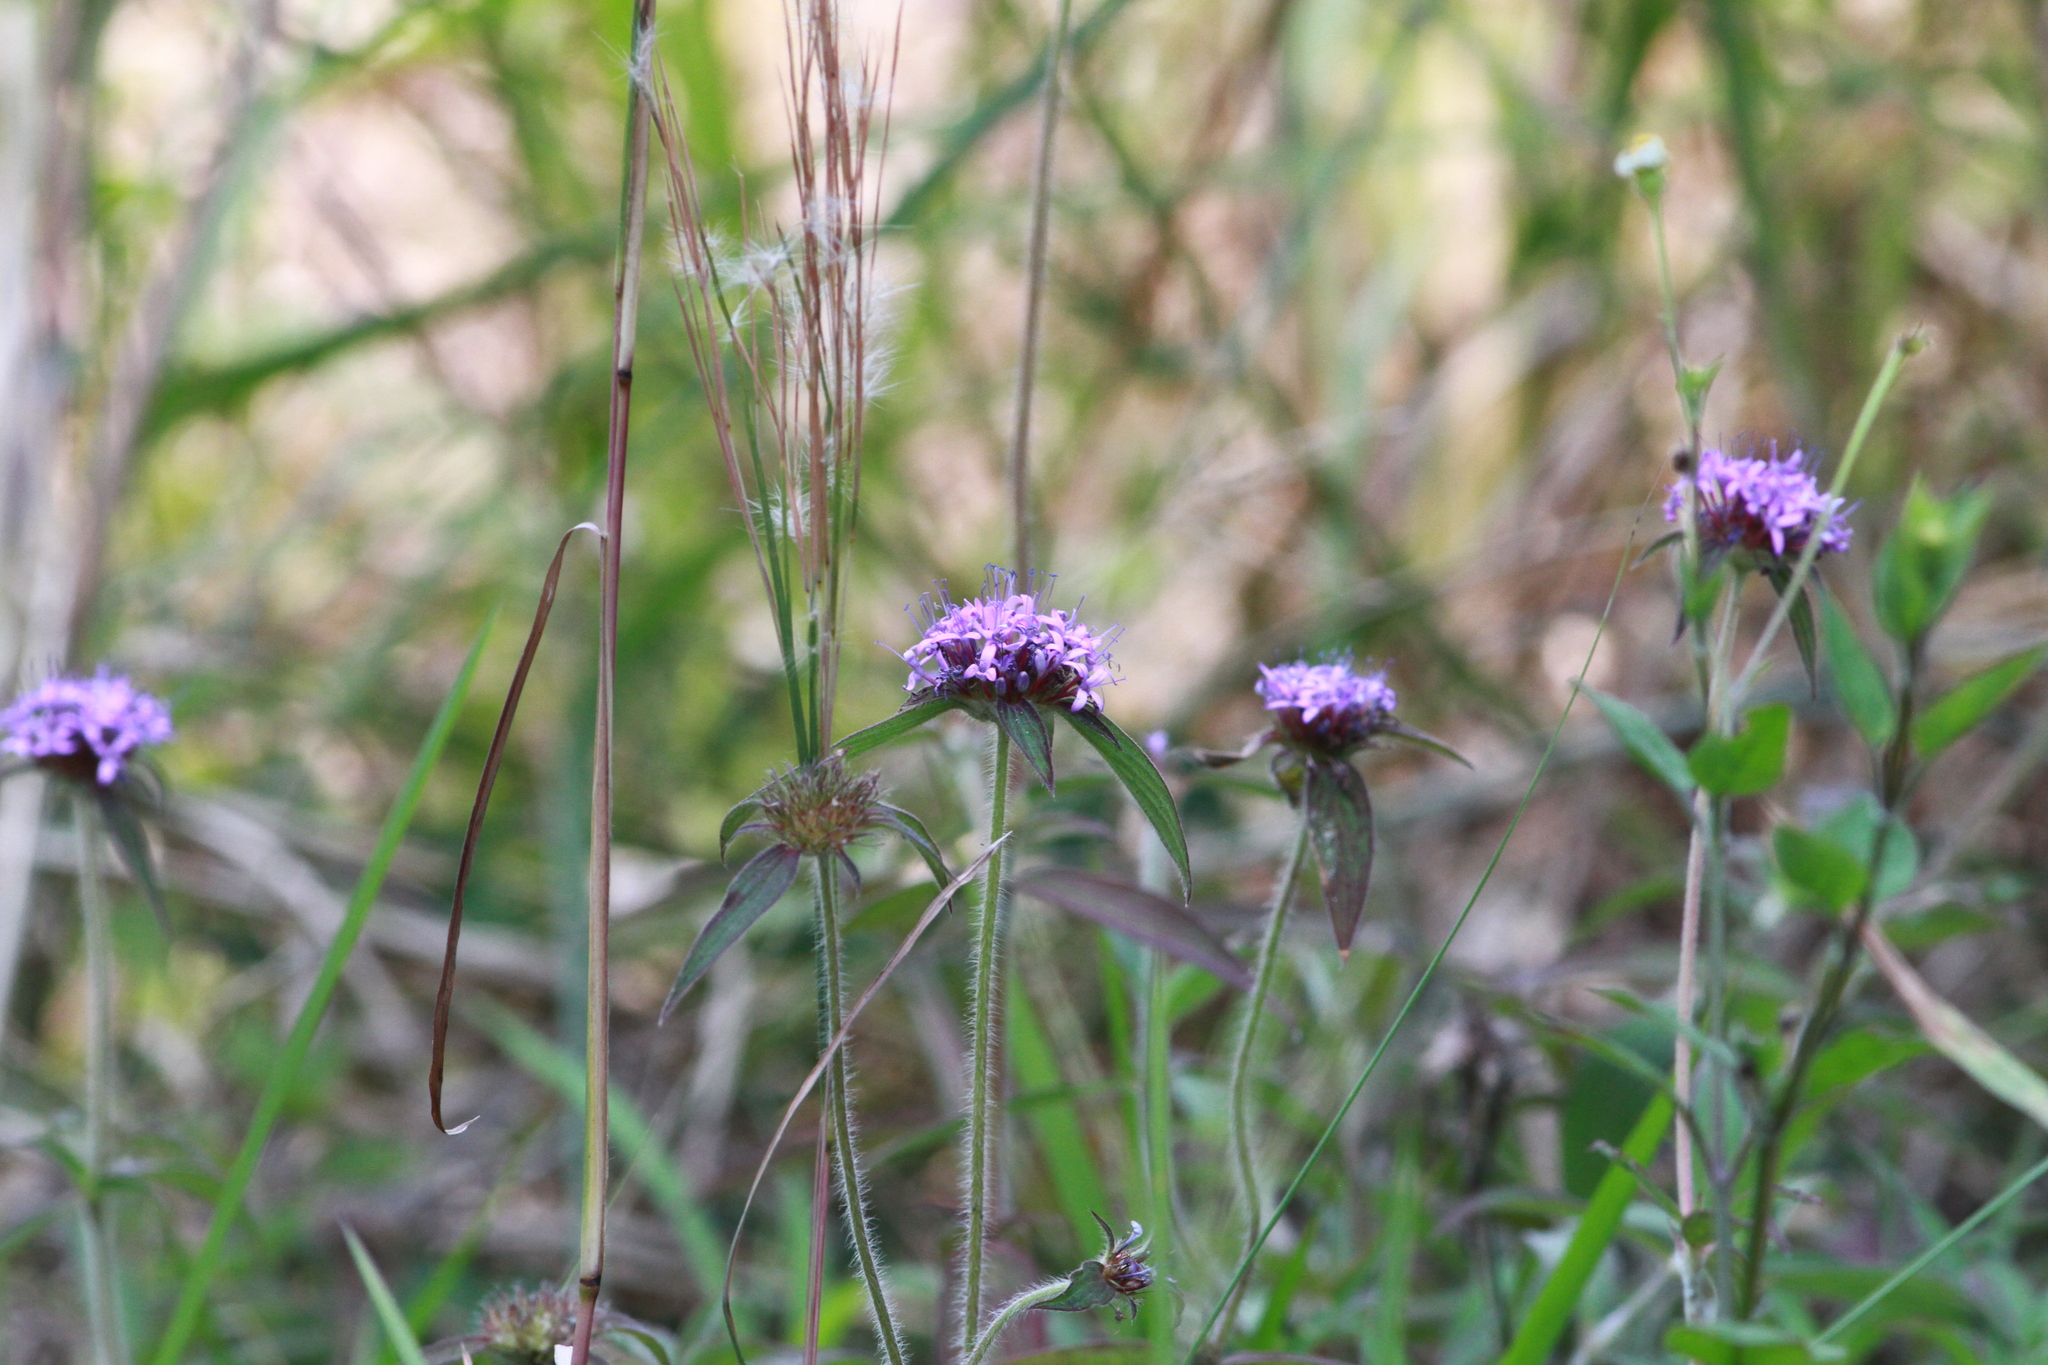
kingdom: Plantae
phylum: Tracheophyta
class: Magnoliopsida
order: Gentianales
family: Rubiaceae
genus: Crusea
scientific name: Crusea hispida
